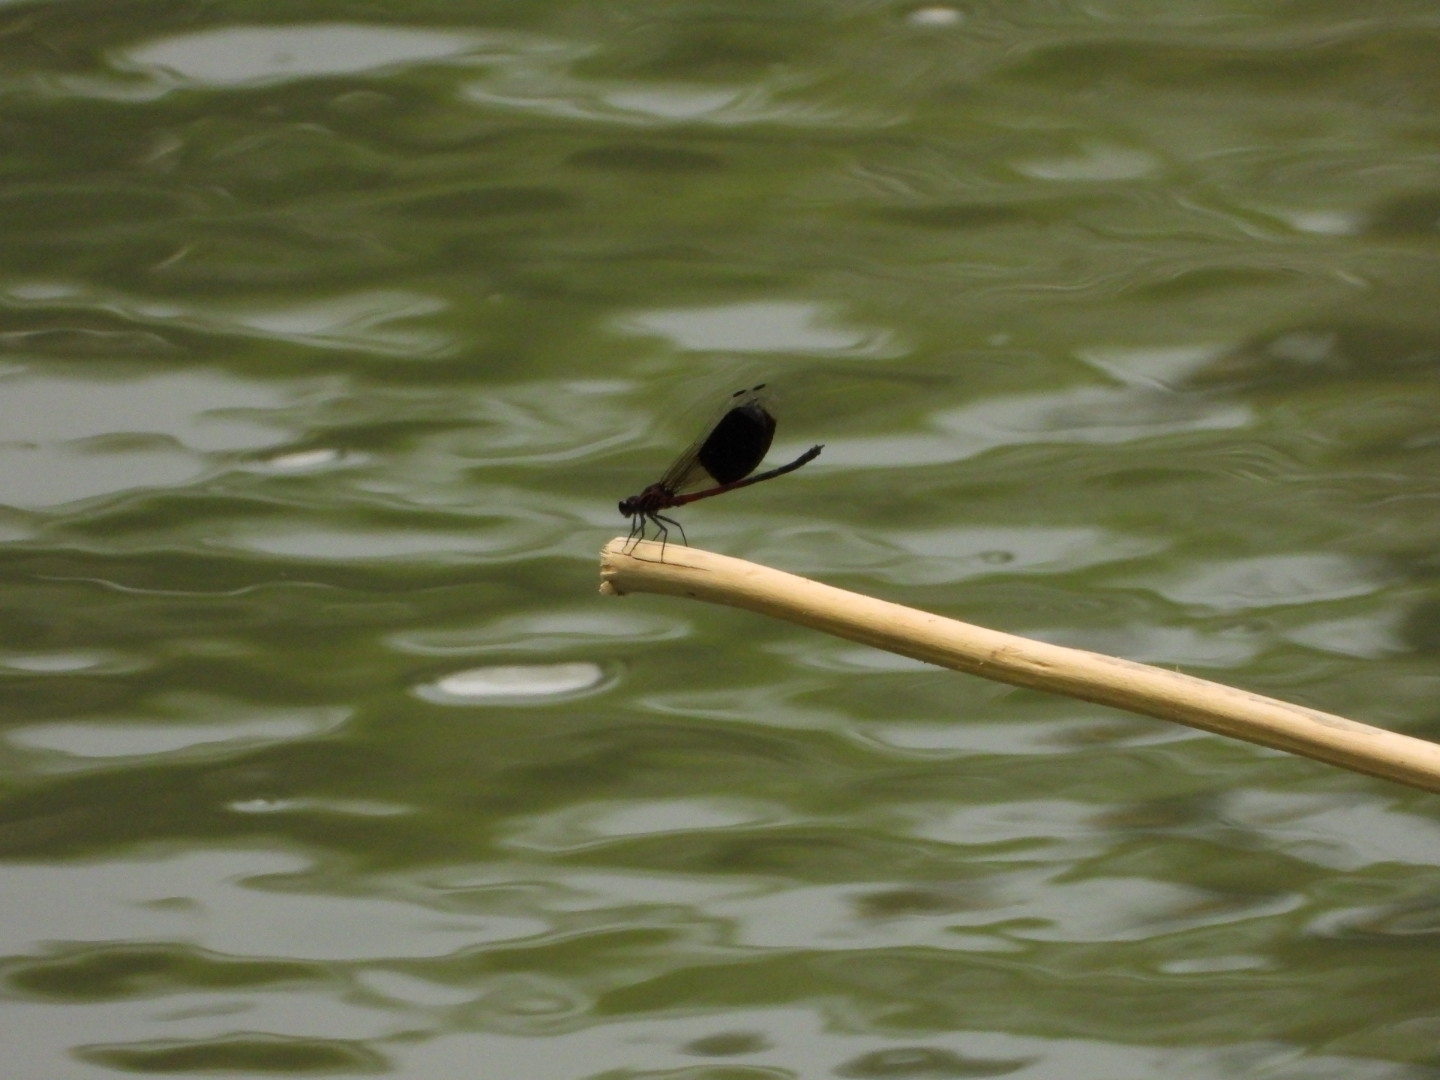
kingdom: Animalia
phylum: Arthropoda
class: Insecta
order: Odonata
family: Euphaeidae
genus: Euphaea
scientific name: Euphaea formosa
